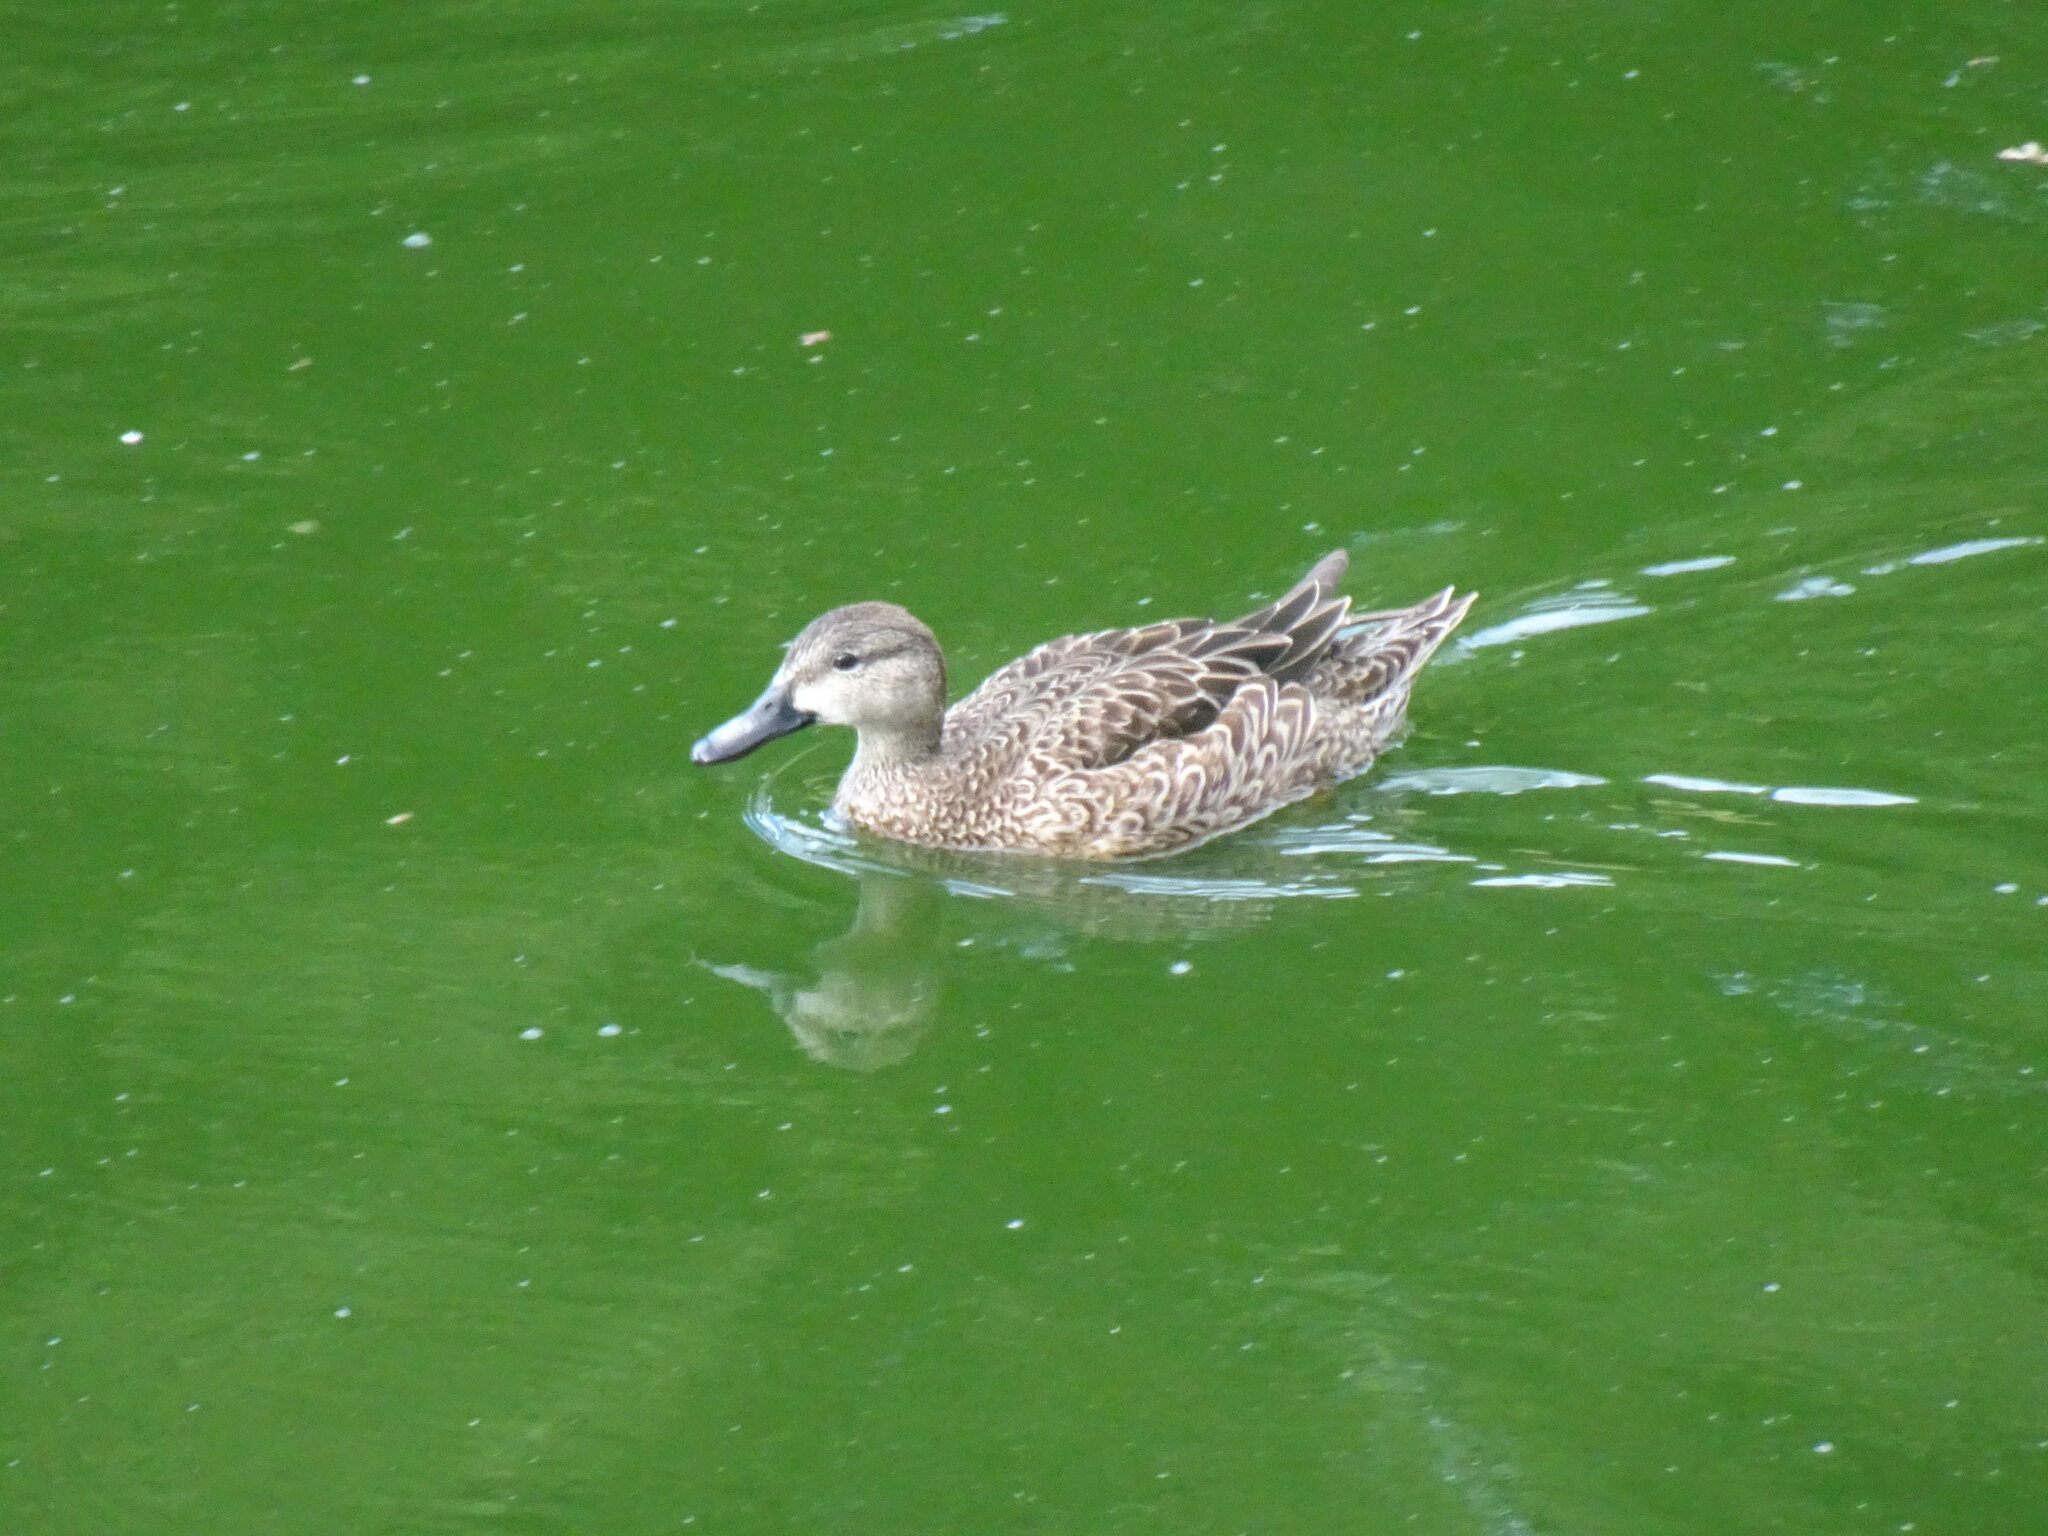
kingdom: Animalia
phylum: Chordata
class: Aves
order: Anseriformes
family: Anatidae
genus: Spatula
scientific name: Spatula discors
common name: Blue-winged teal
